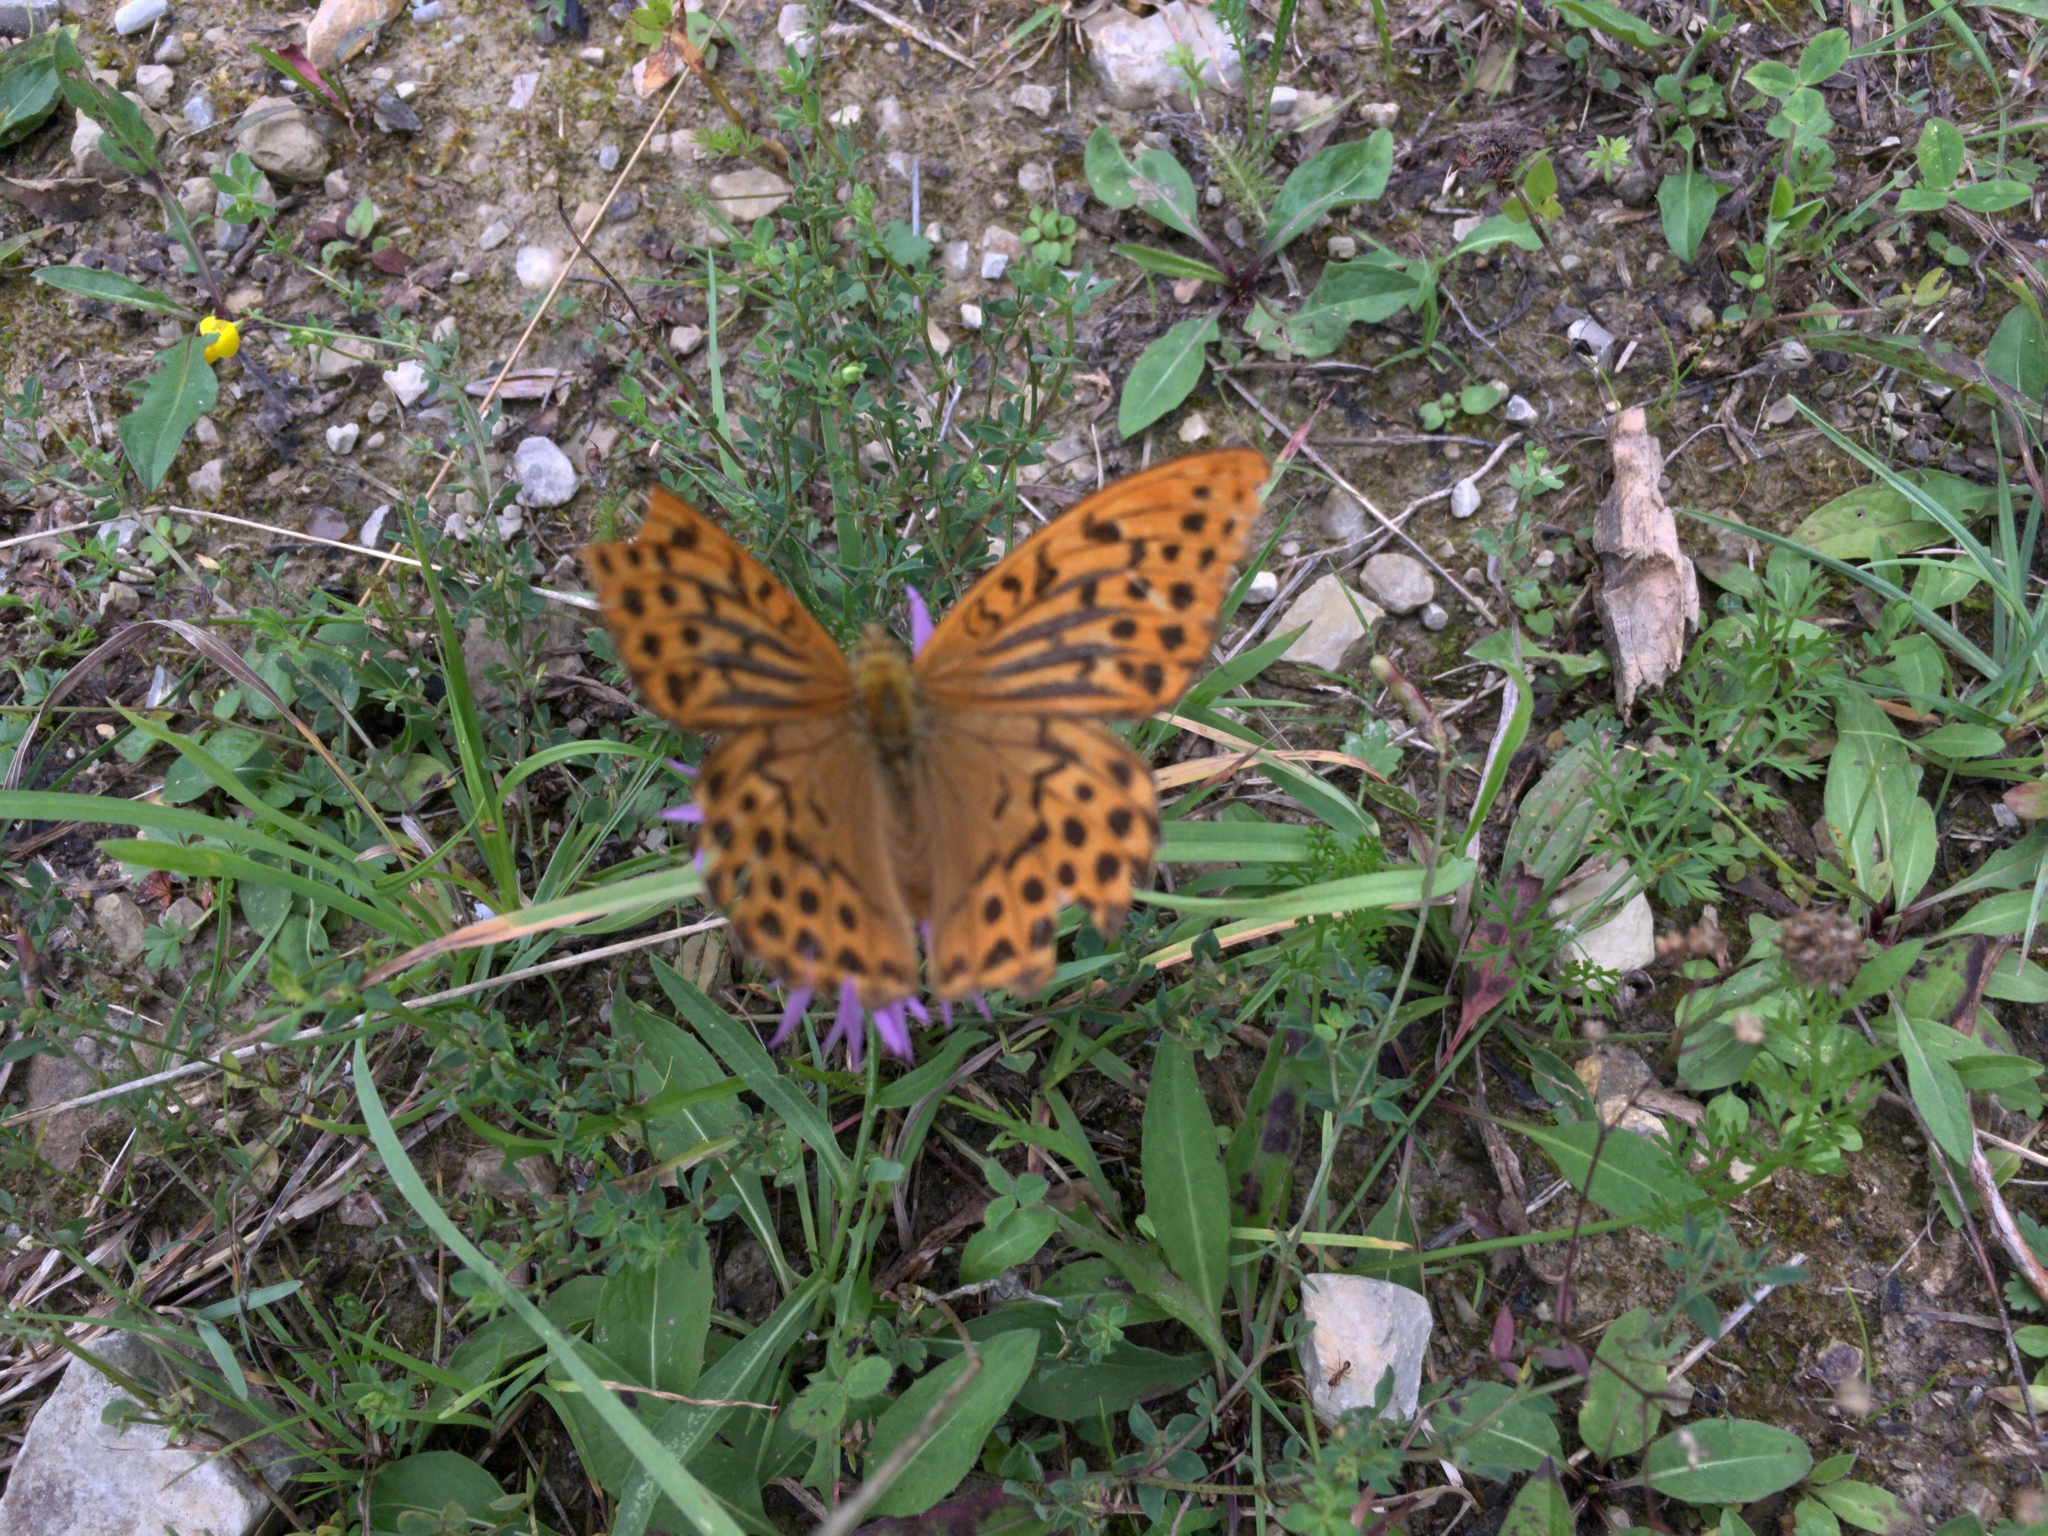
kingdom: Animalia
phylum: Arthropoda
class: Insecta
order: Lepidoptera
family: Nymphalidae
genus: Argynnis
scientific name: Argynnis paphia
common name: Silver-washed fritillary
